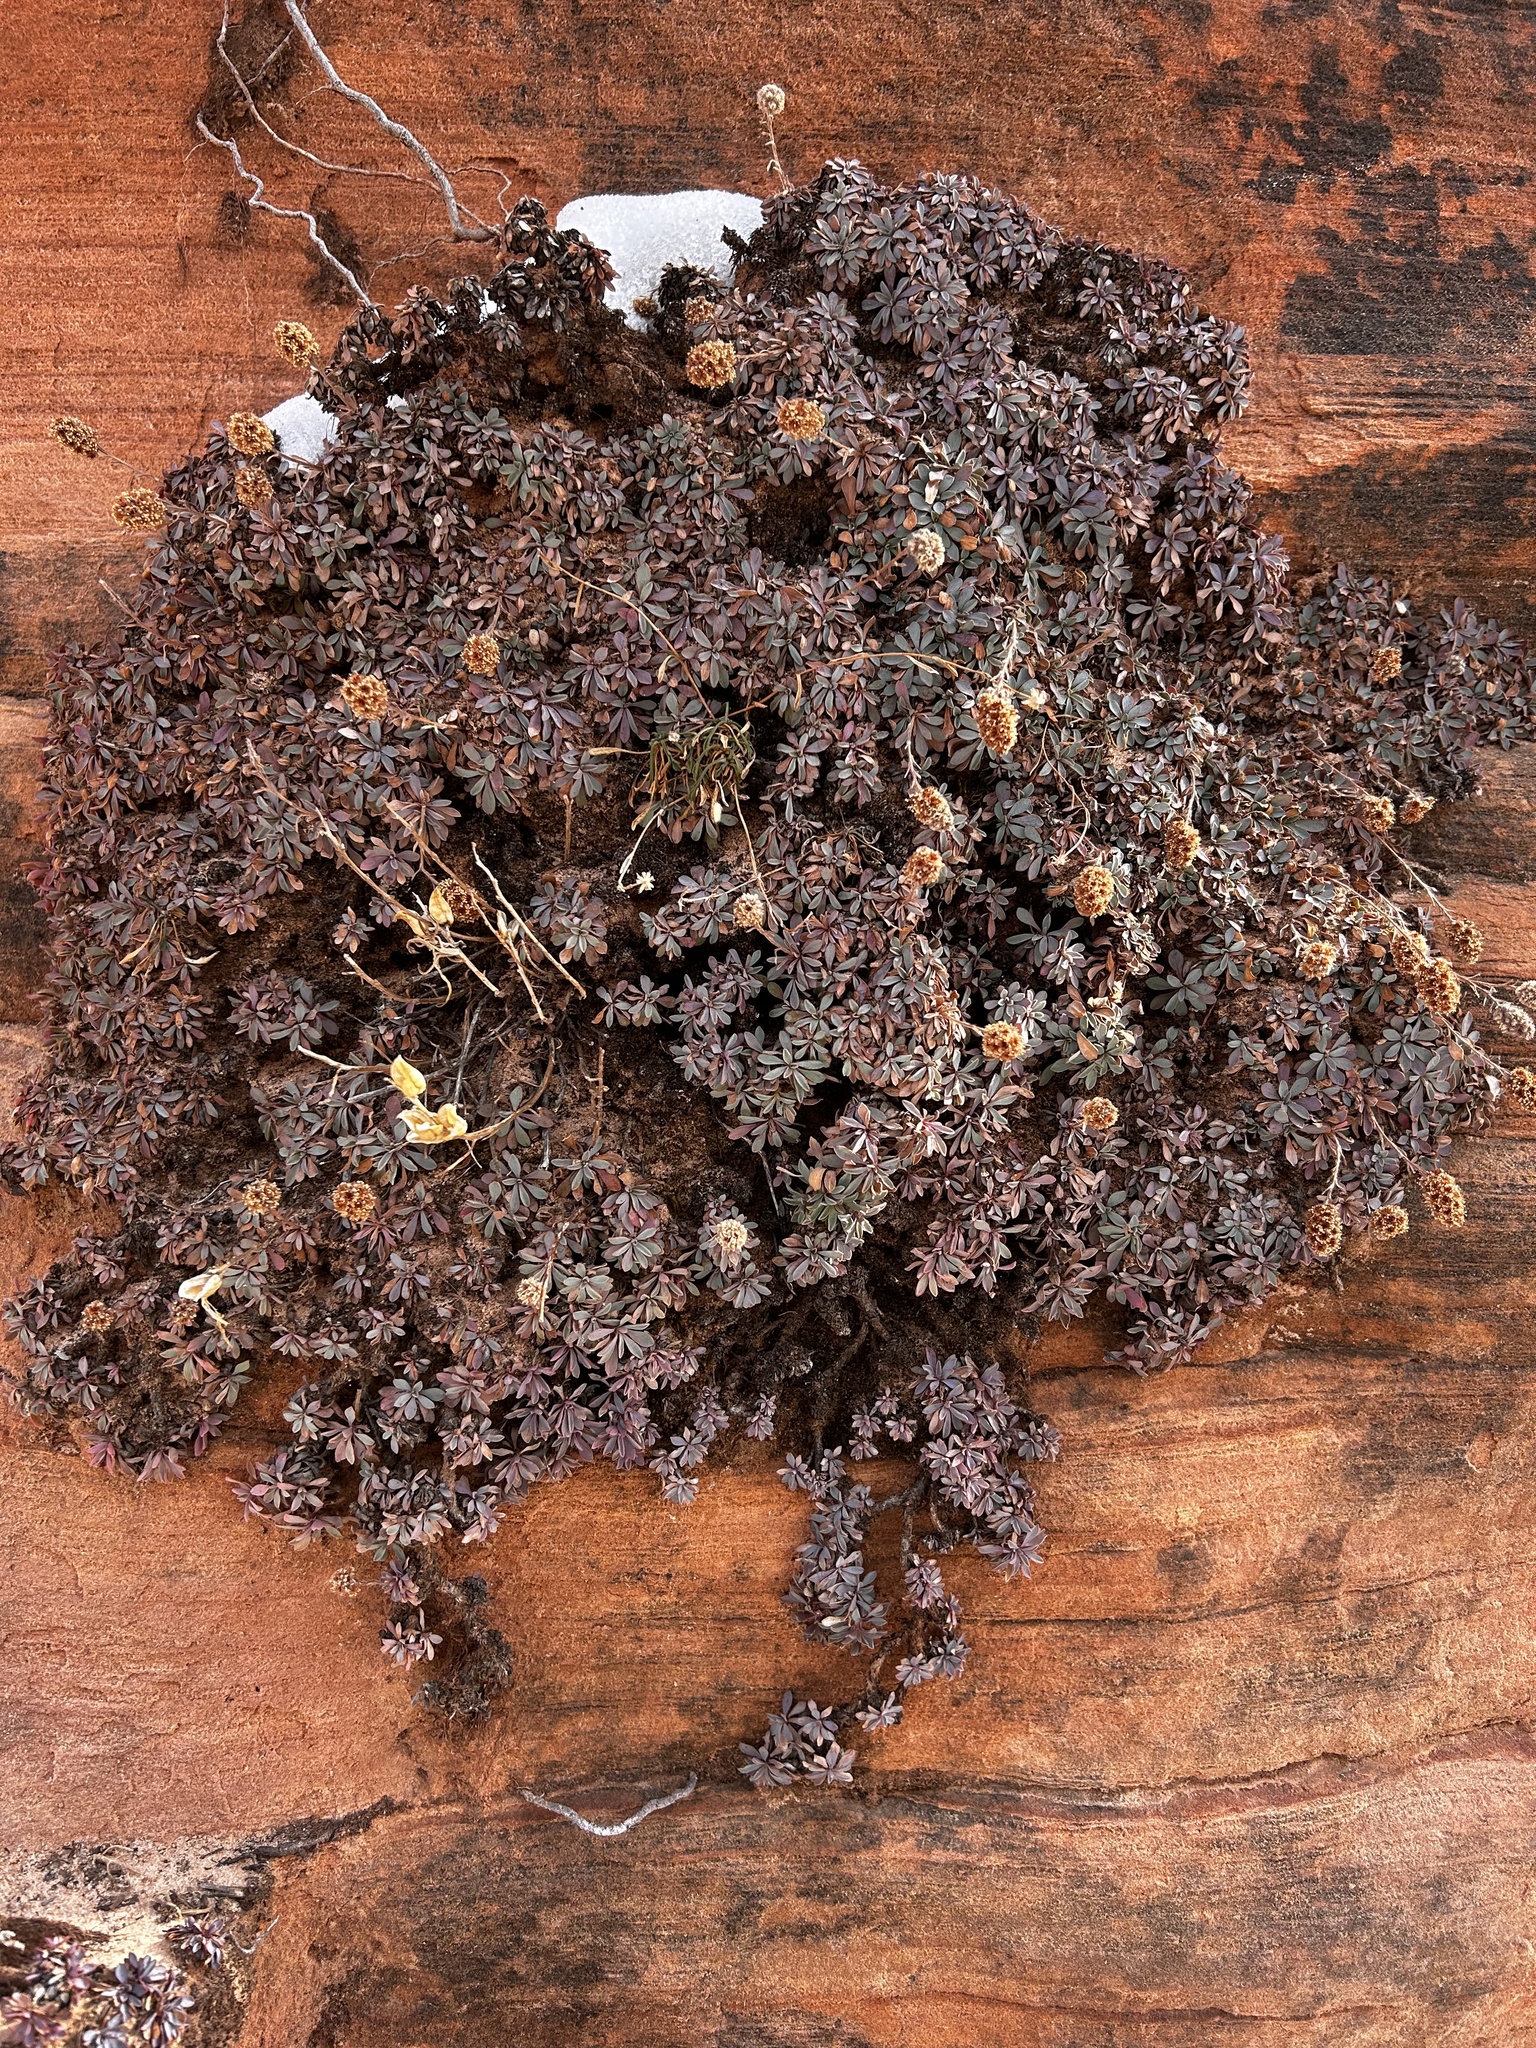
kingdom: Plantae
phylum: Tracheophyta
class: Magnoliopsida
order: Rosales
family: Rosaceae
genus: Petrophytum
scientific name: Petrophytum caespitosum
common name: Mat rockspirea
